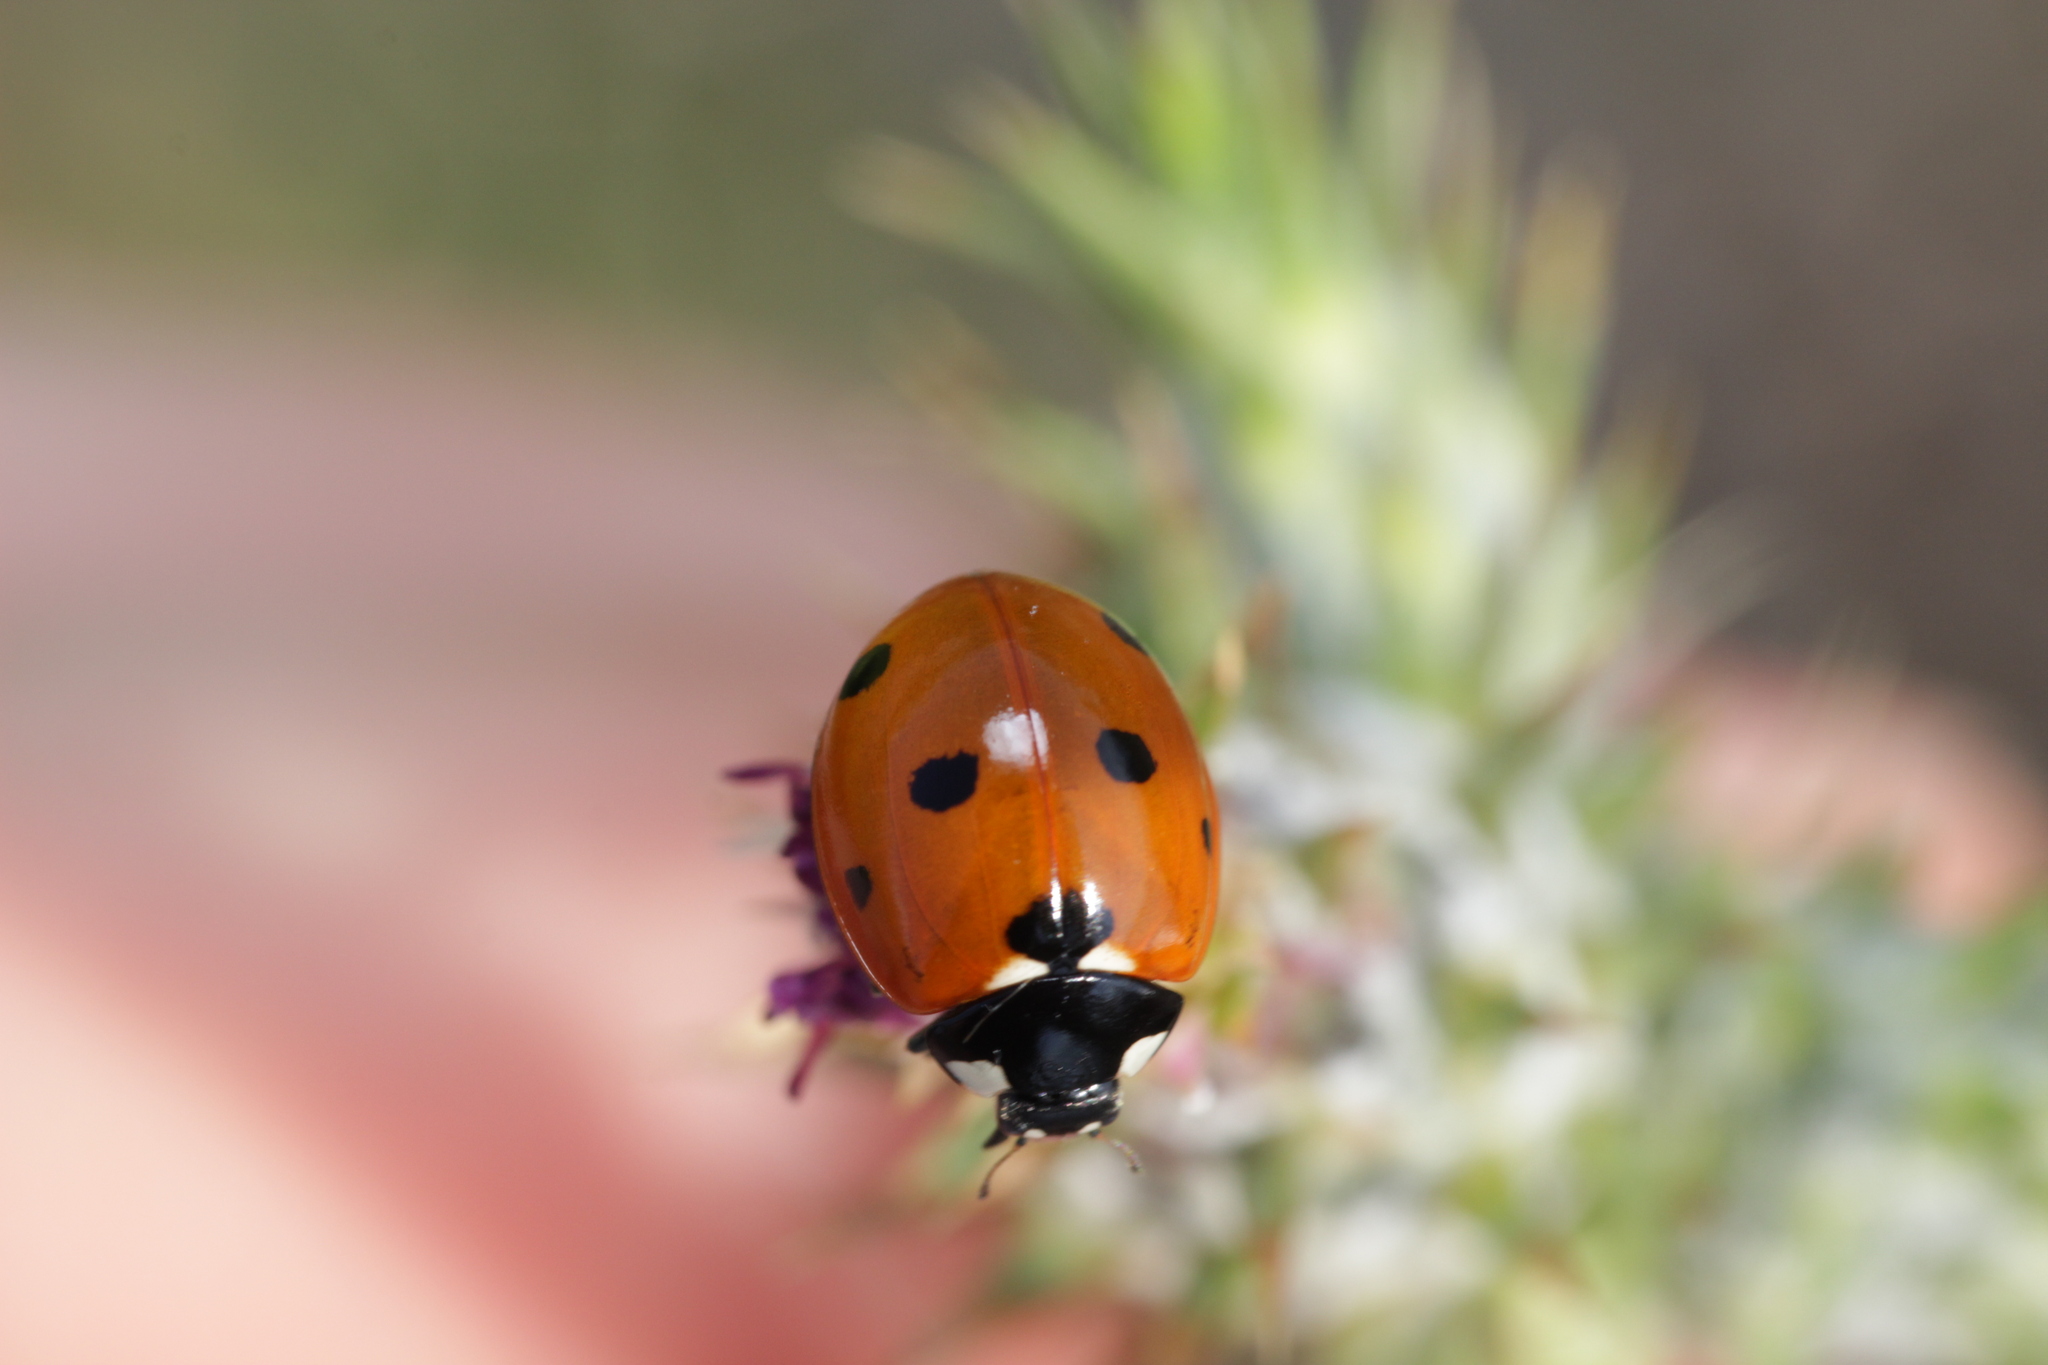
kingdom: Animalia
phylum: Arthropoda
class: Insecta
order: Coleoptera
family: Coccinellidae
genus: Coccinella
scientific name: Coccinella septempunctata
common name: Sevenspotted lady beetle
